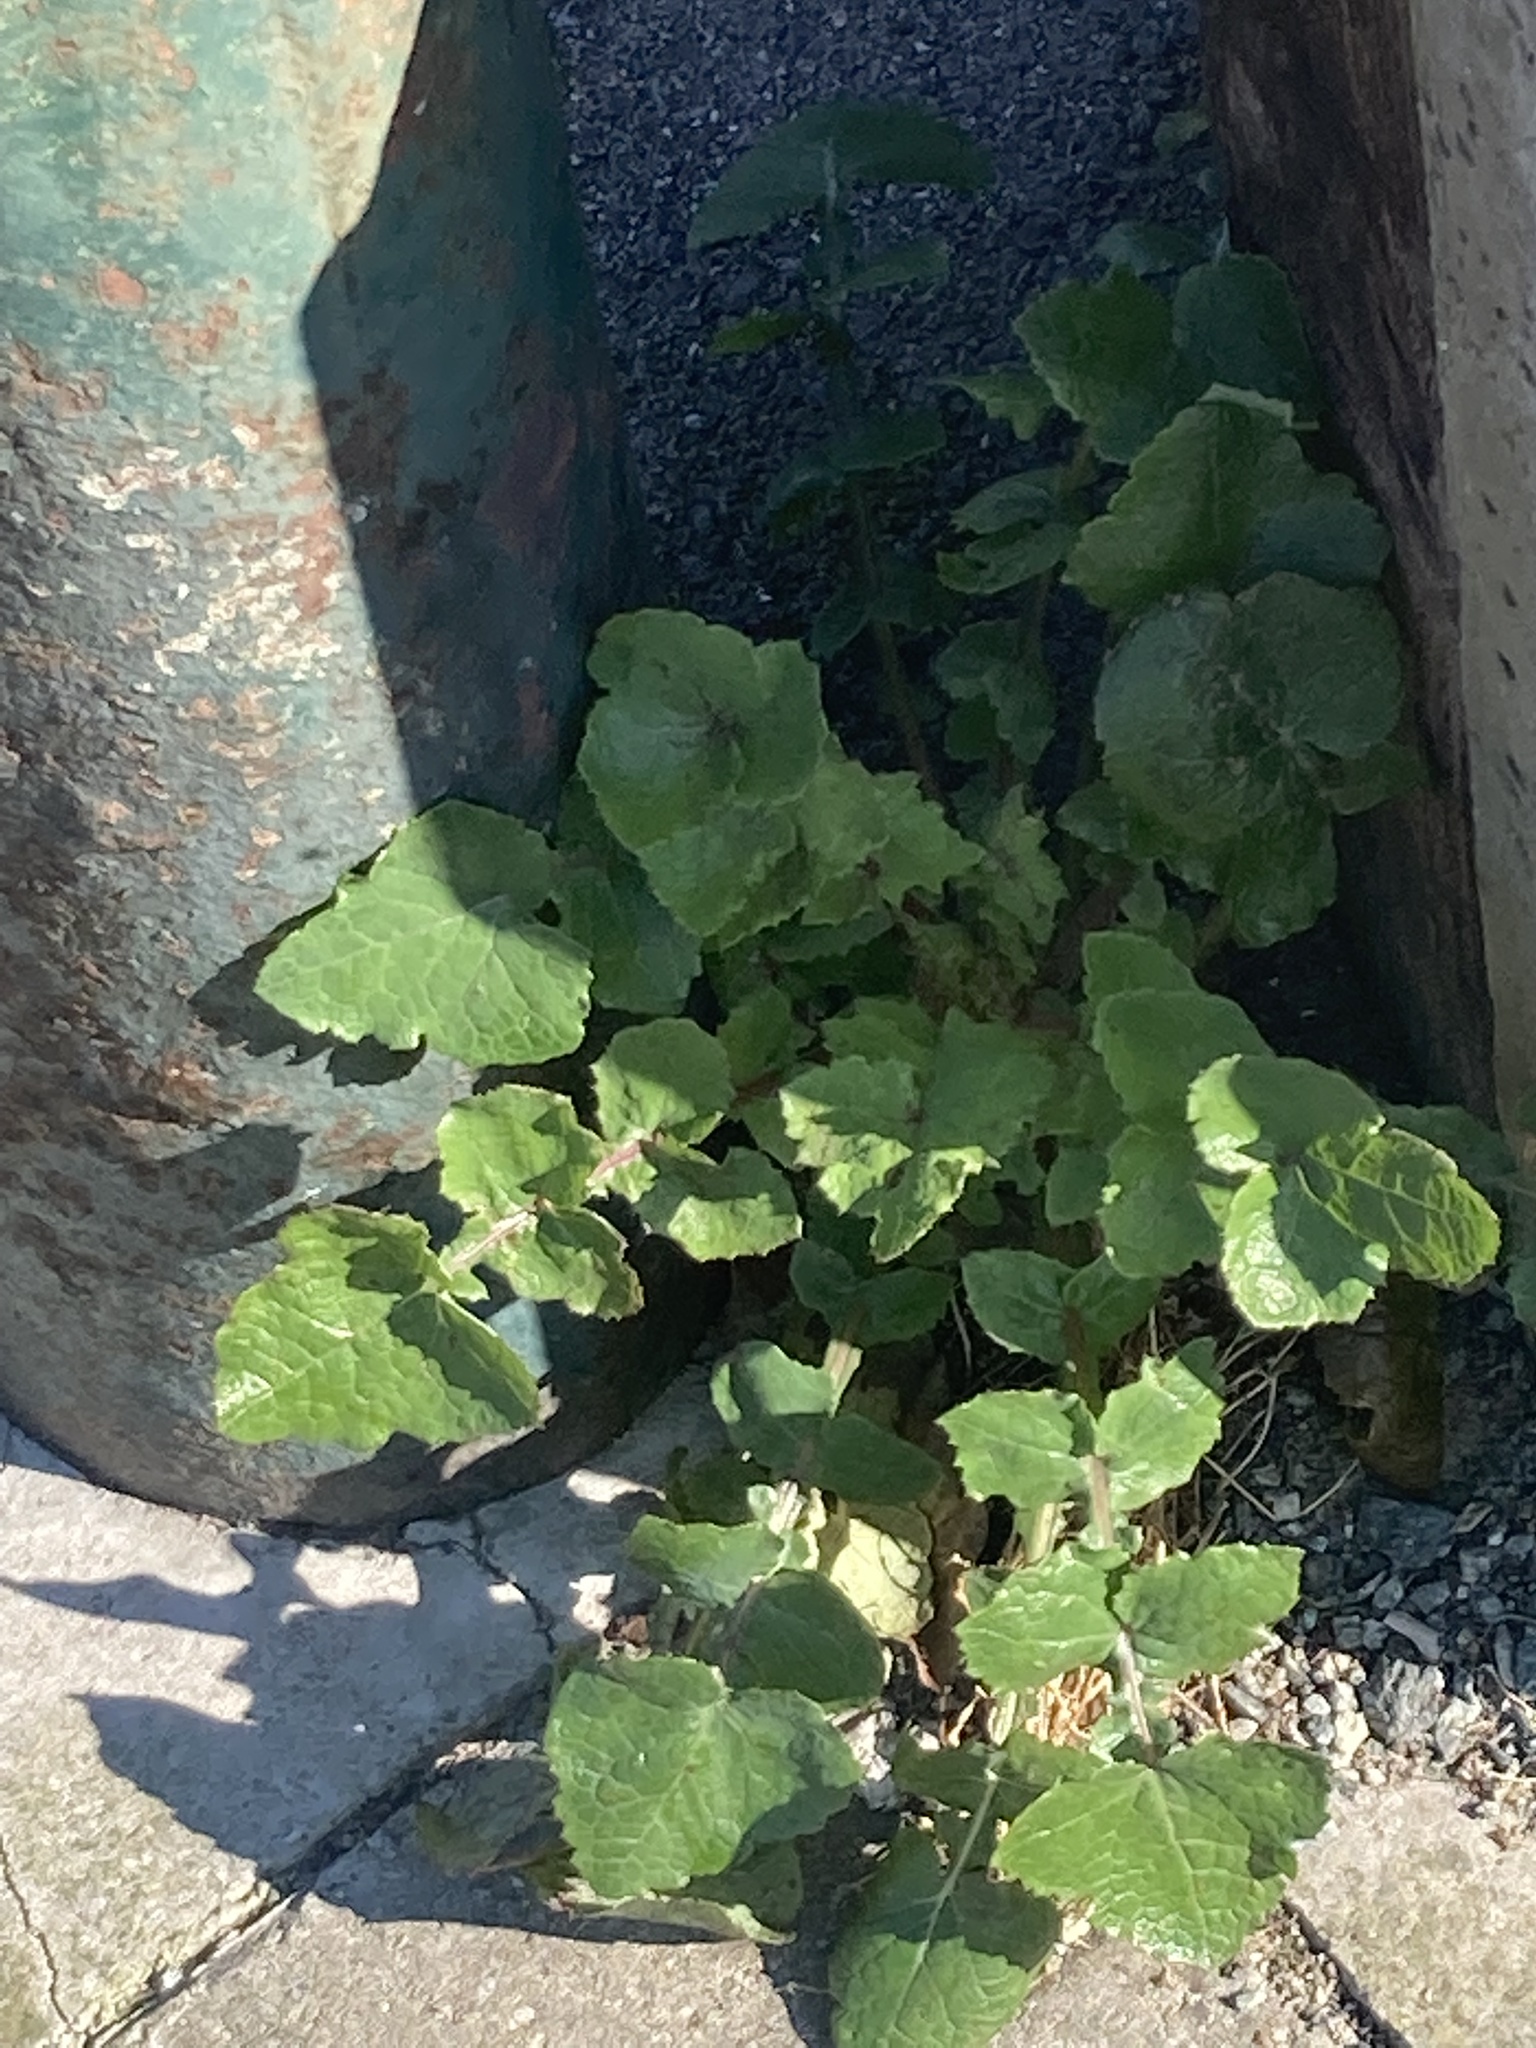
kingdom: Plantae
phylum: Tracheophyta
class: Magnoliopsida
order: Asterales
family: Asteraceae
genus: Sonchus
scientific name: Sonchus oleraceus
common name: Common sowthistle
